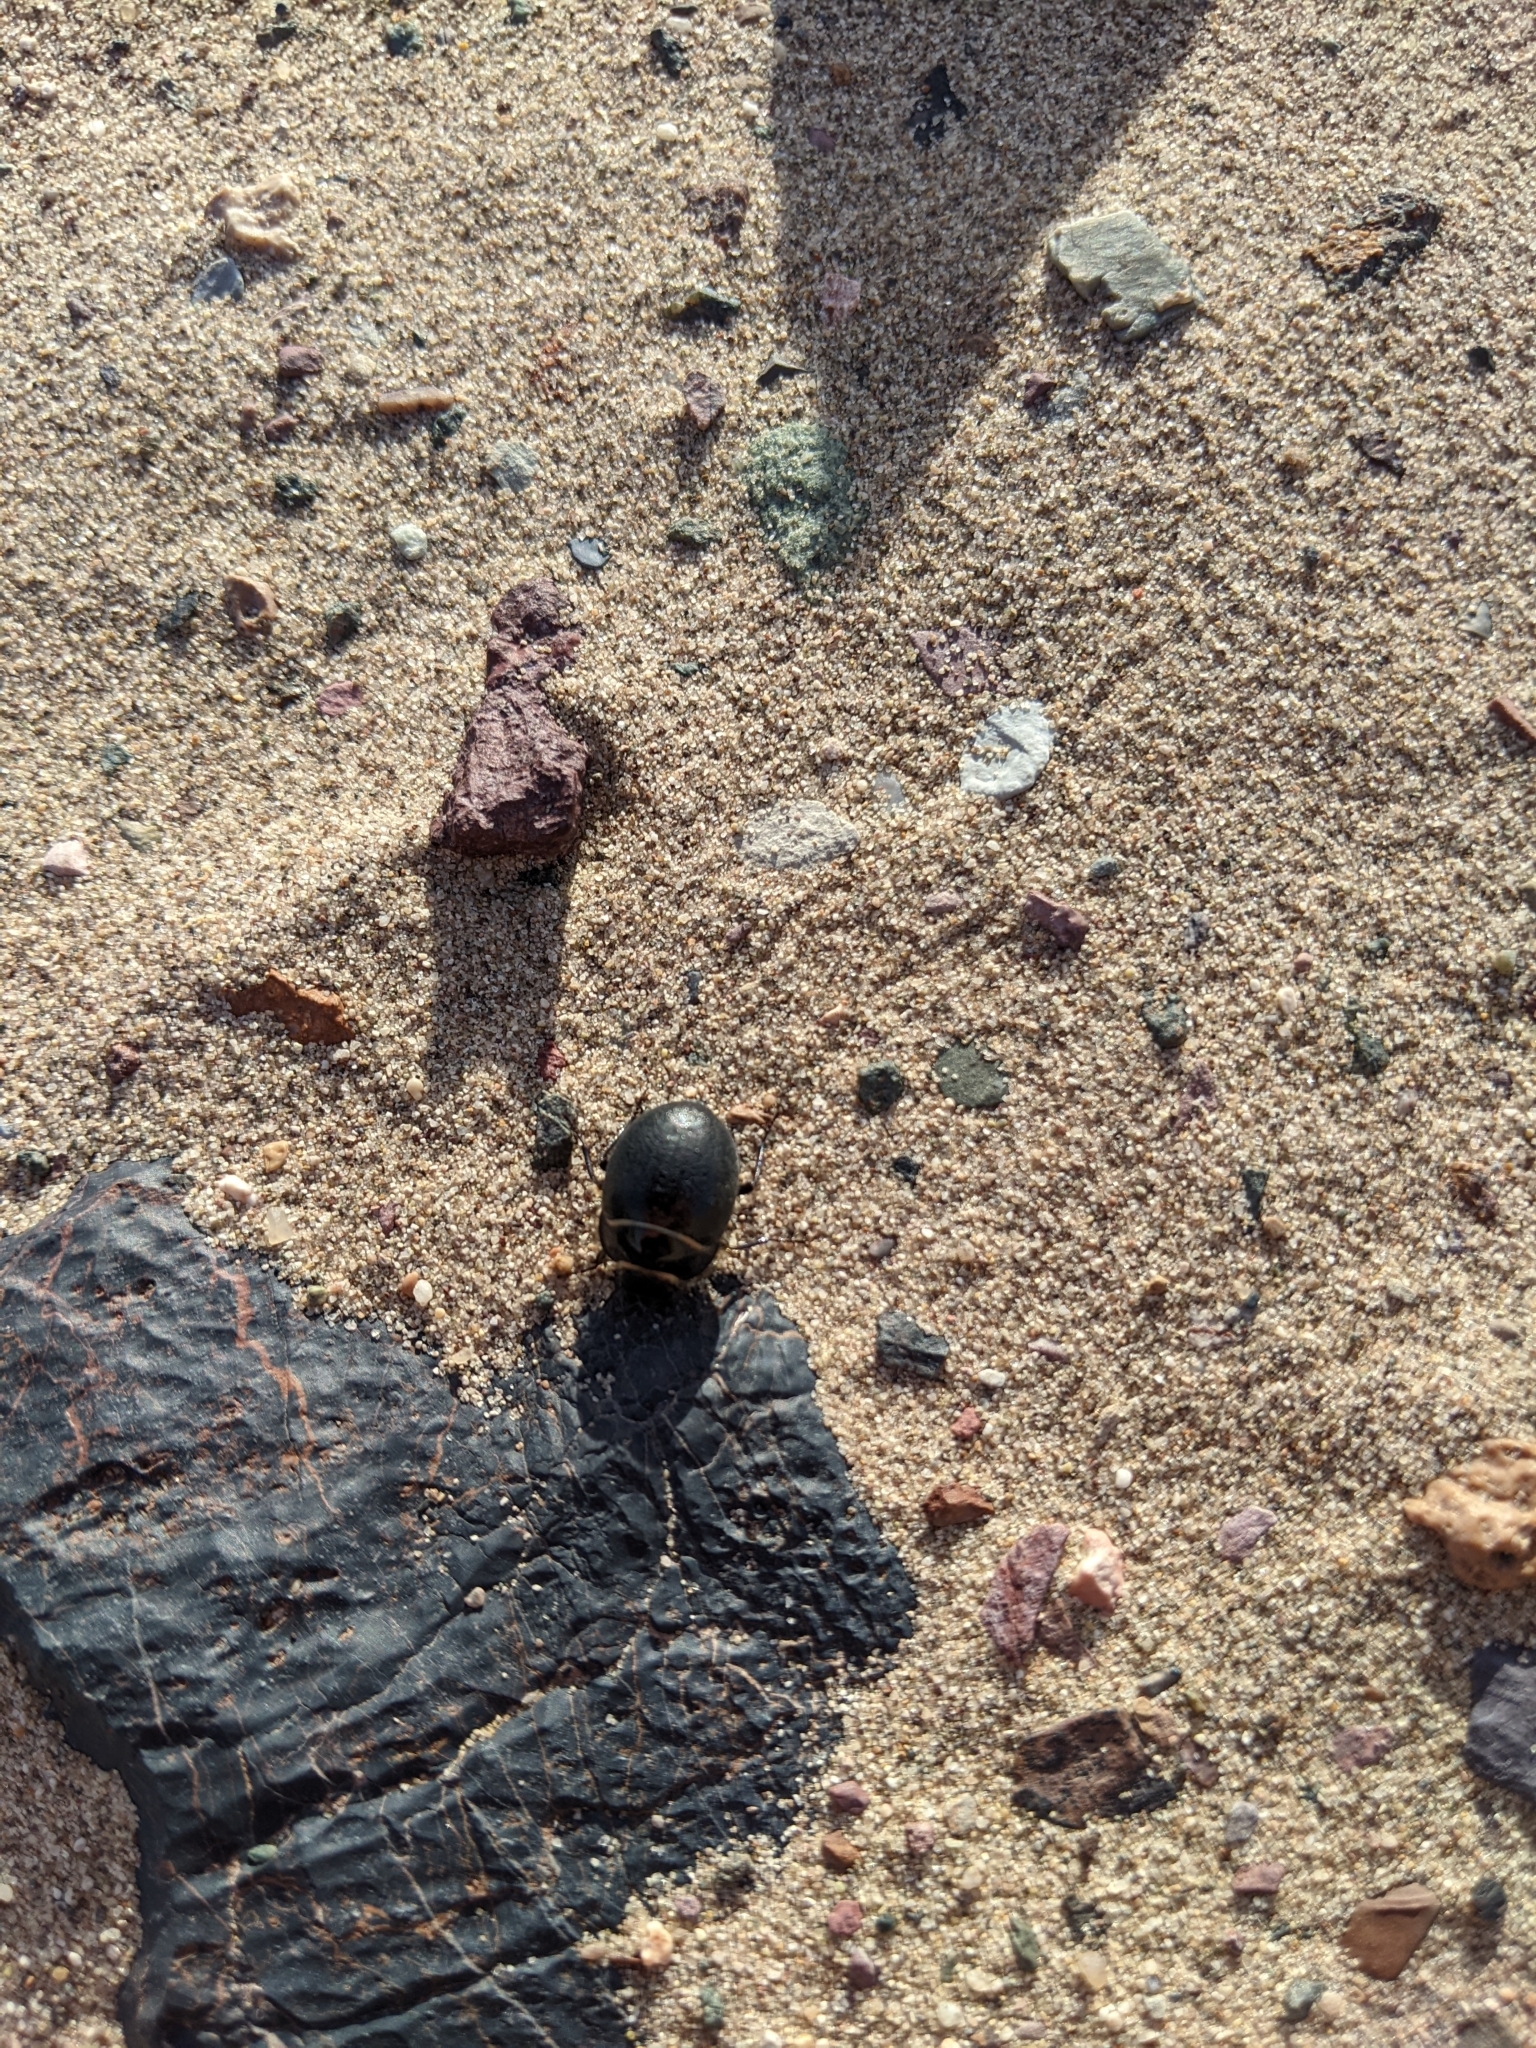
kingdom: Animalia
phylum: Arthropoda
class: Insecta
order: Coleoptera
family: Tenebrionidae
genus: Eusattus
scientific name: Eusattus muricatus
